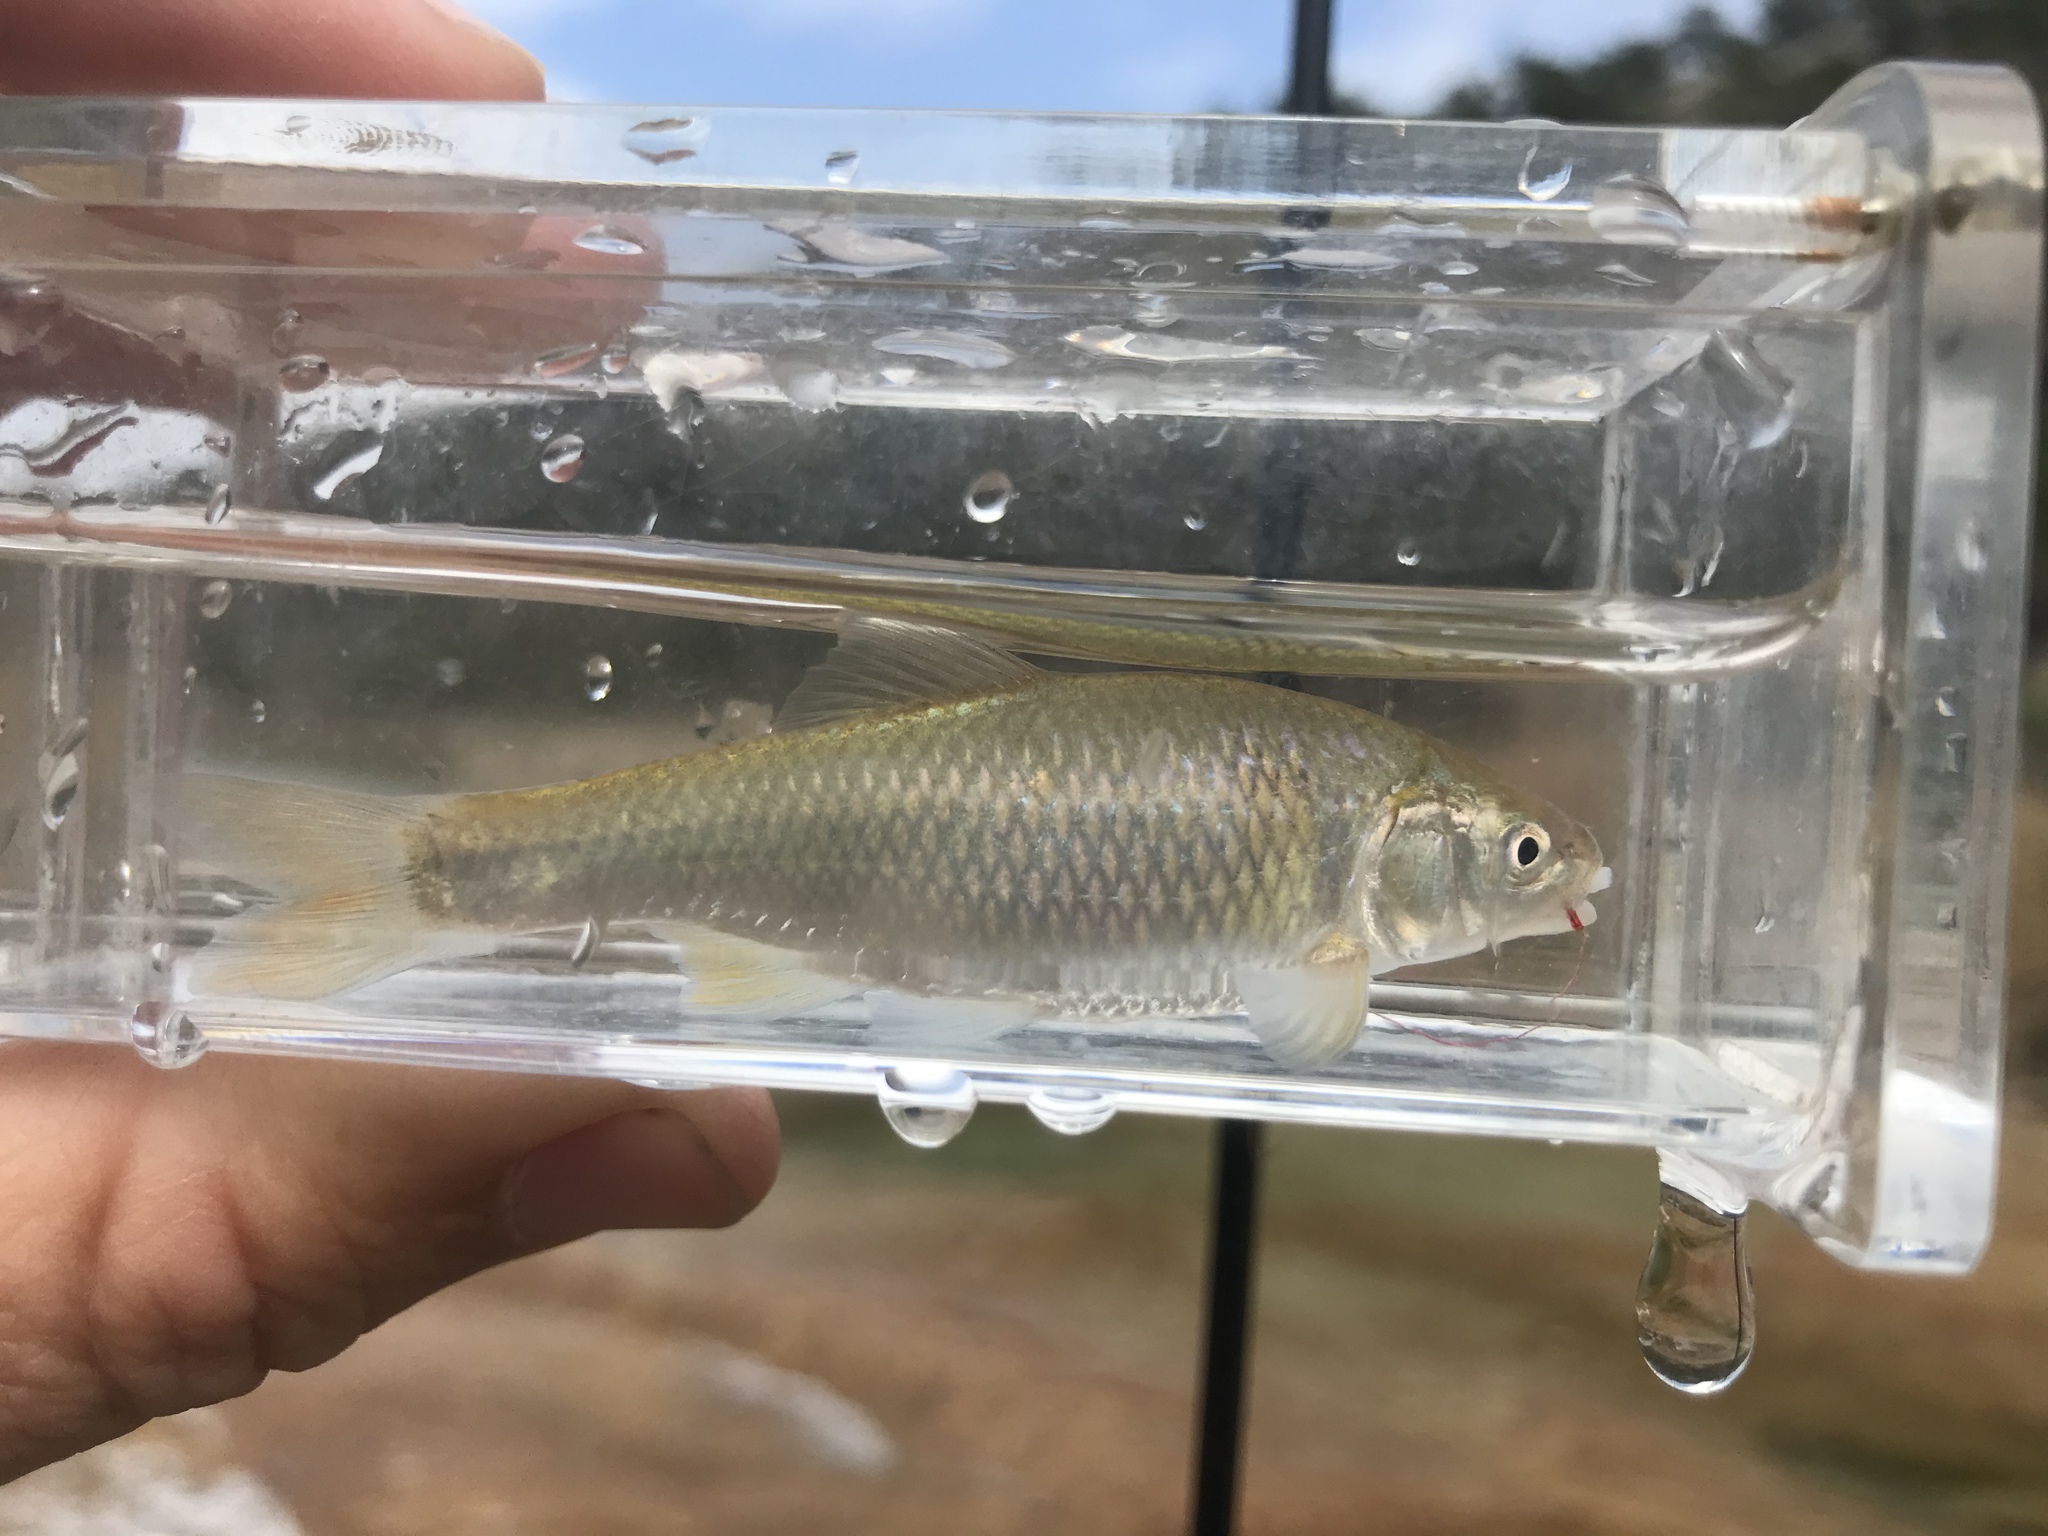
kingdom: Animalia
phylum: Chordata
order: Cypriniformes
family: Cyprinidae
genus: Cyprinella
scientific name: Cyprinella lutrensis
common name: Red shiner
